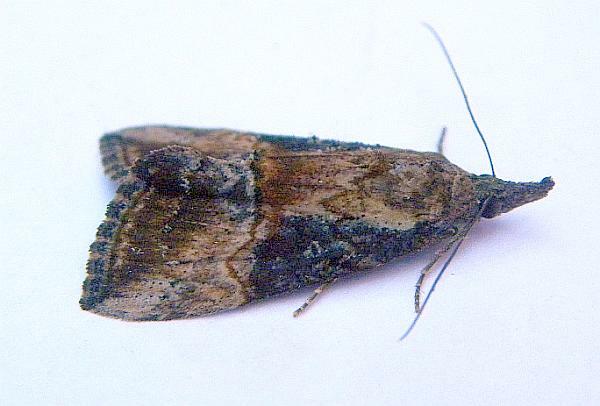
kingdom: Animalia
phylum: Arthropoda
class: Insecta
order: Lepidoptera
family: Erebidae
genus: Hypena
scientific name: Hypena scabra
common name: Green cloverworm
